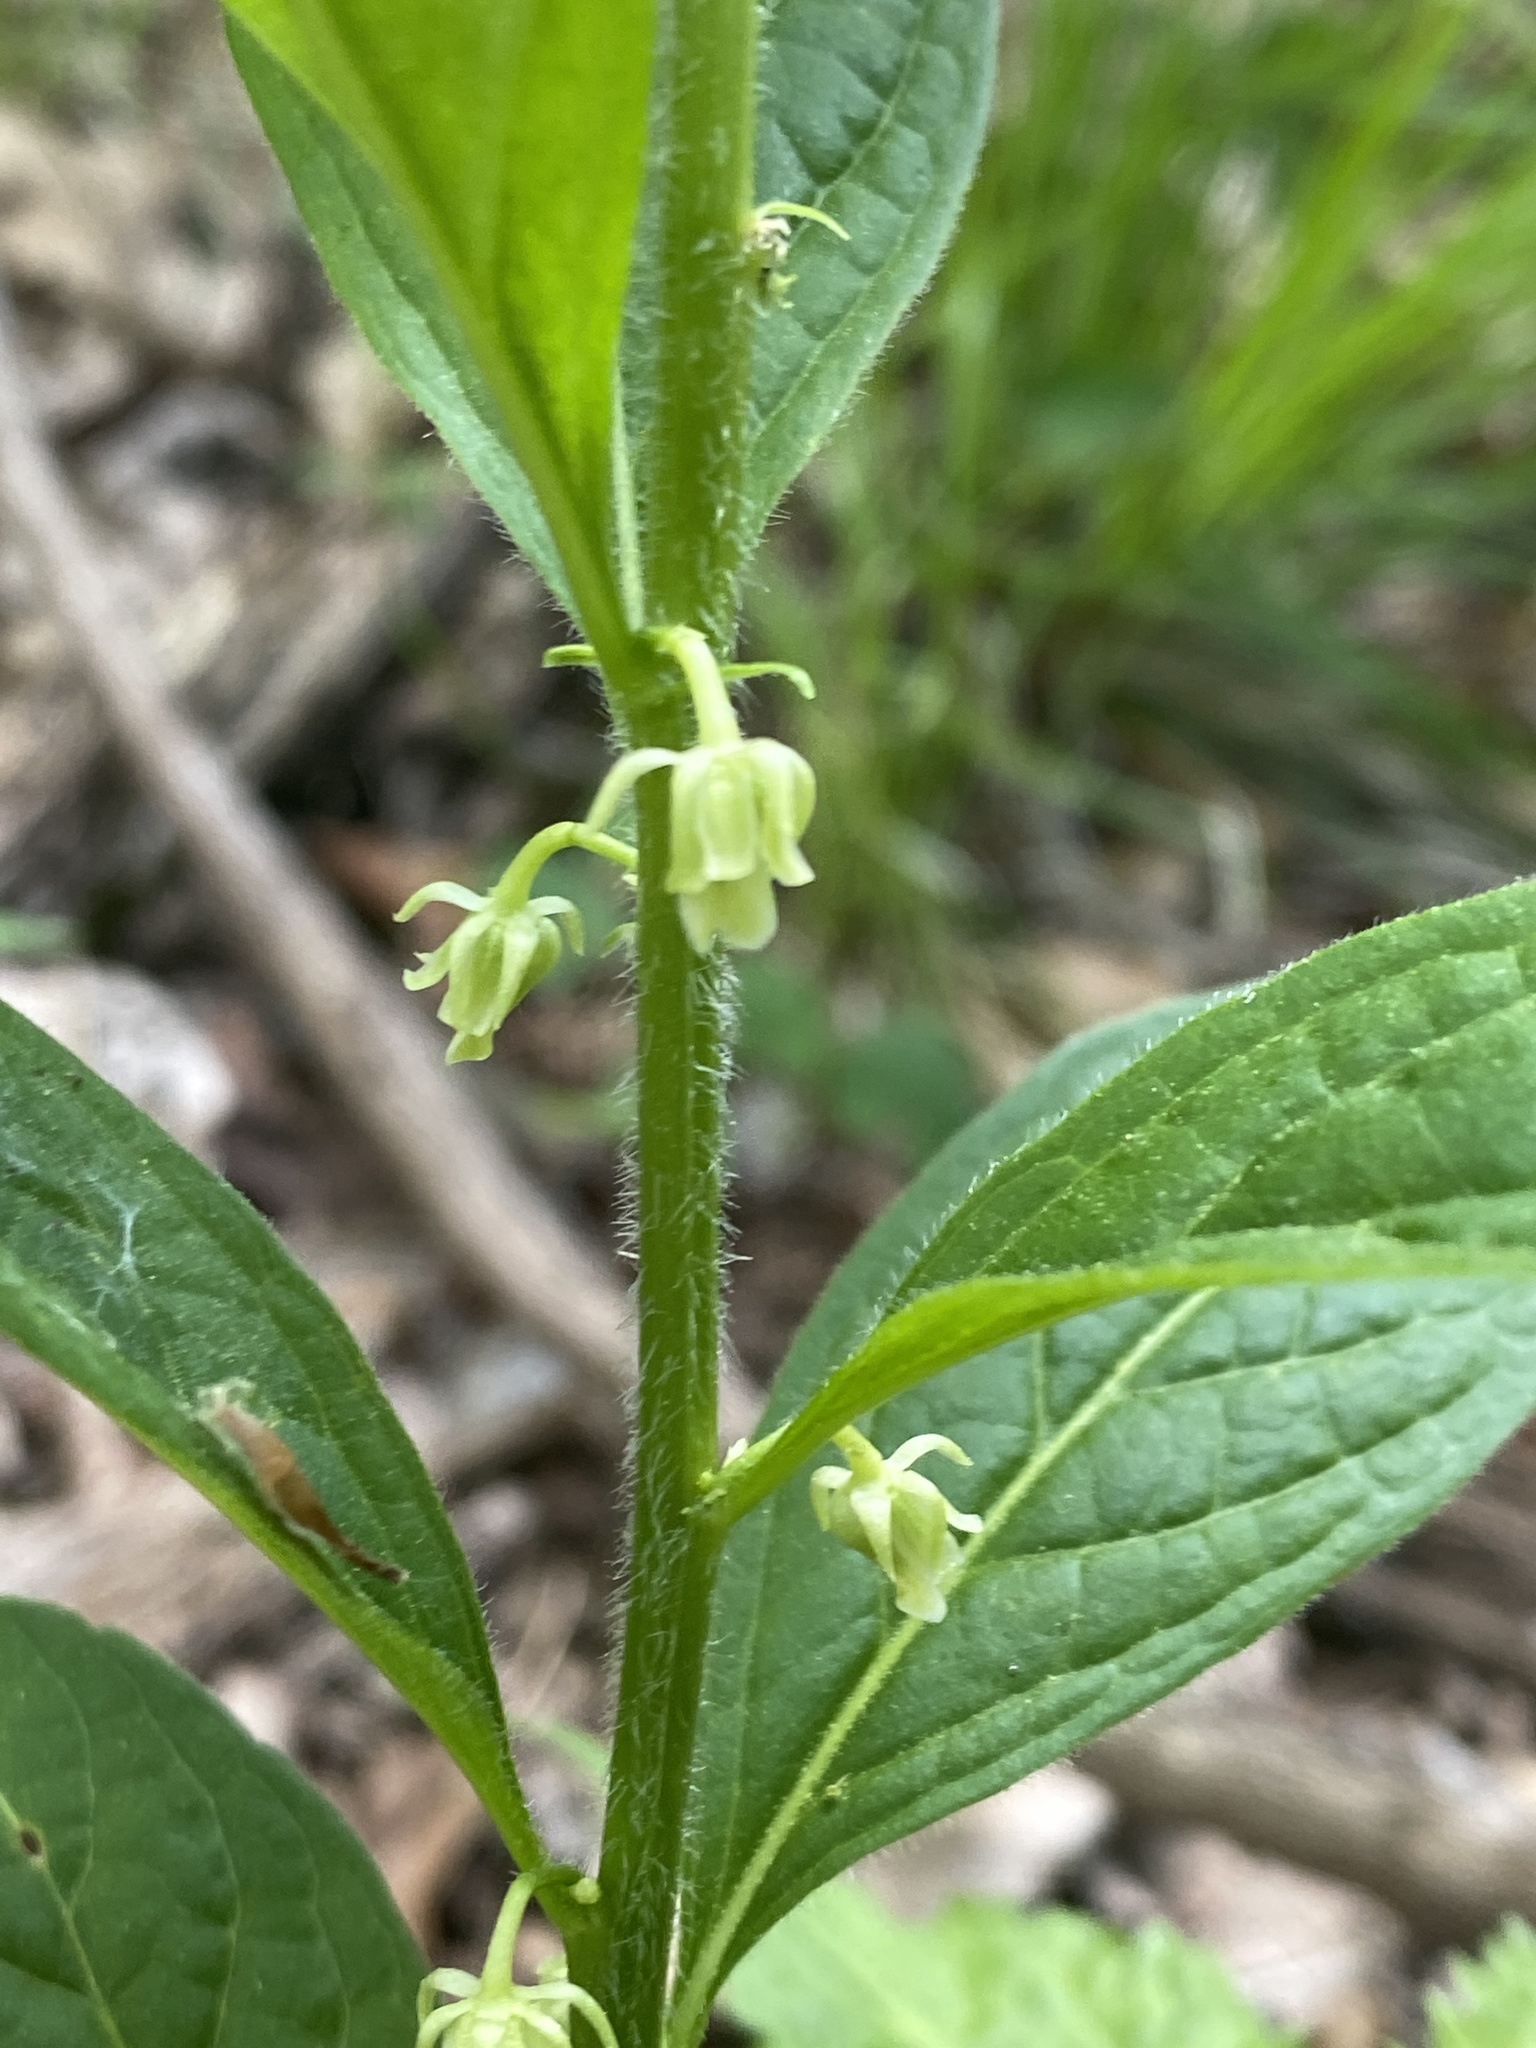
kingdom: Plantae
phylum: Tracheophyta
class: Magnoliopsida
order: Malpighiales
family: Violaceae
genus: Cubelium
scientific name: Cubelium concolor
